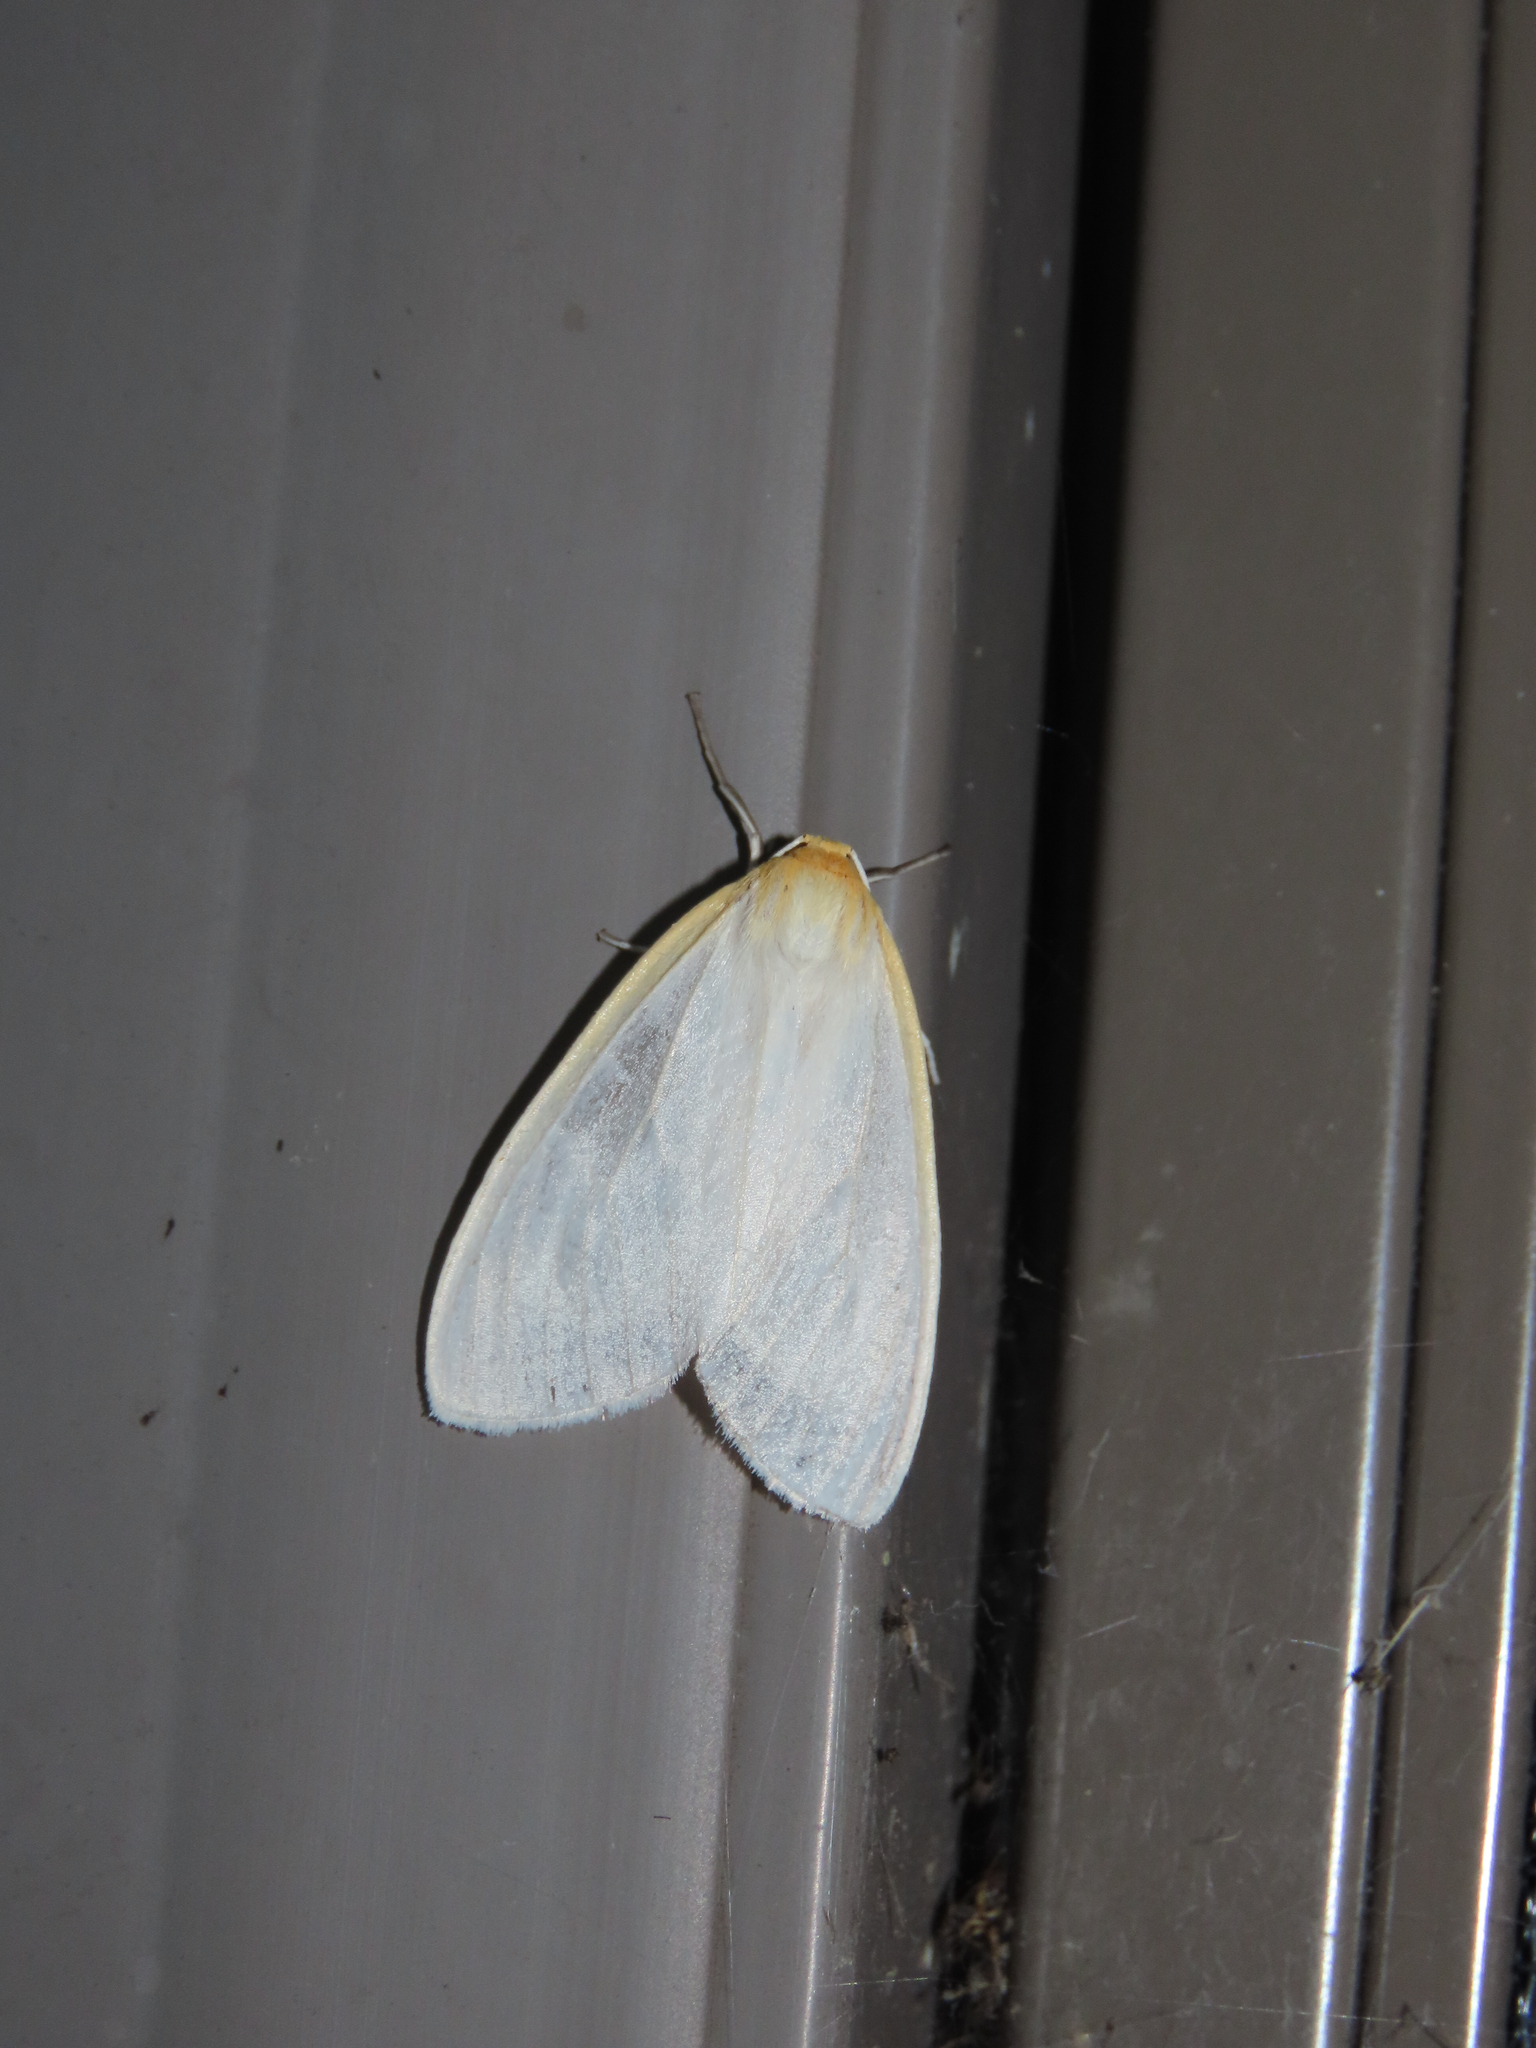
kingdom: Animalia
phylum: Arthropoda
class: Insecta
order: Lepidoptera
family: Erebidae
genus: Cycnia
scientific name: Cycnia tenera
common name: Delicate cycnia moth
